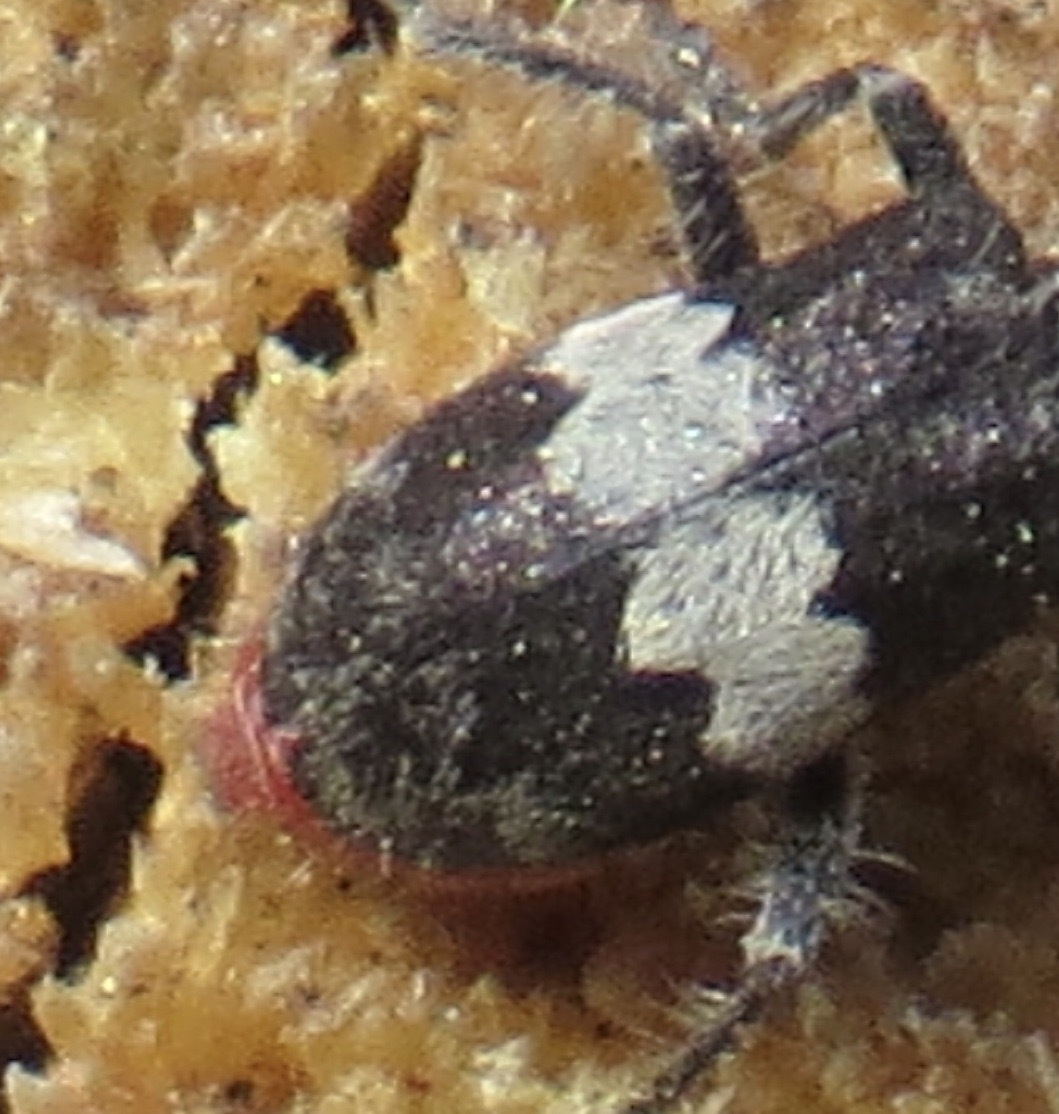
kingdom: Animalia
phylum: Arthropoda
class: Insecta
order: Coleoptera
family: Cleridae
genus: Enoclerus
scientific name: Enoclerus sphegeus
